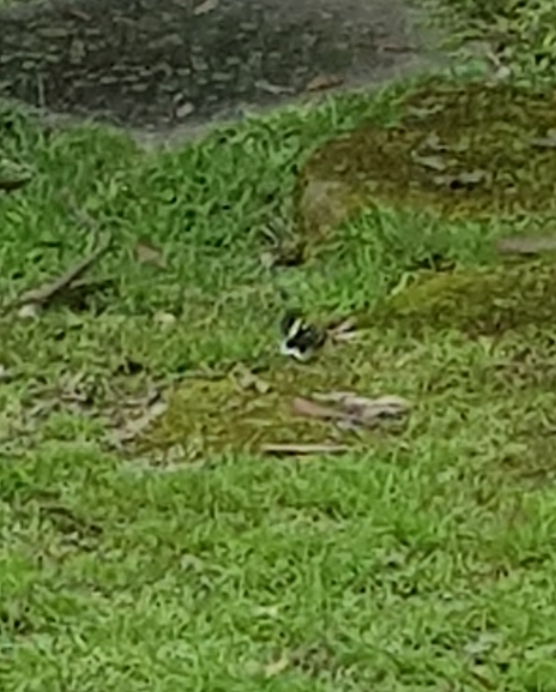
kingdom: Animalia
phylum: Arthropoda
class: Insecta
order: Lepidoptera
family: Noctuidae
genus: Phalaenoides
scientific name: Phalaenoides glycinae
